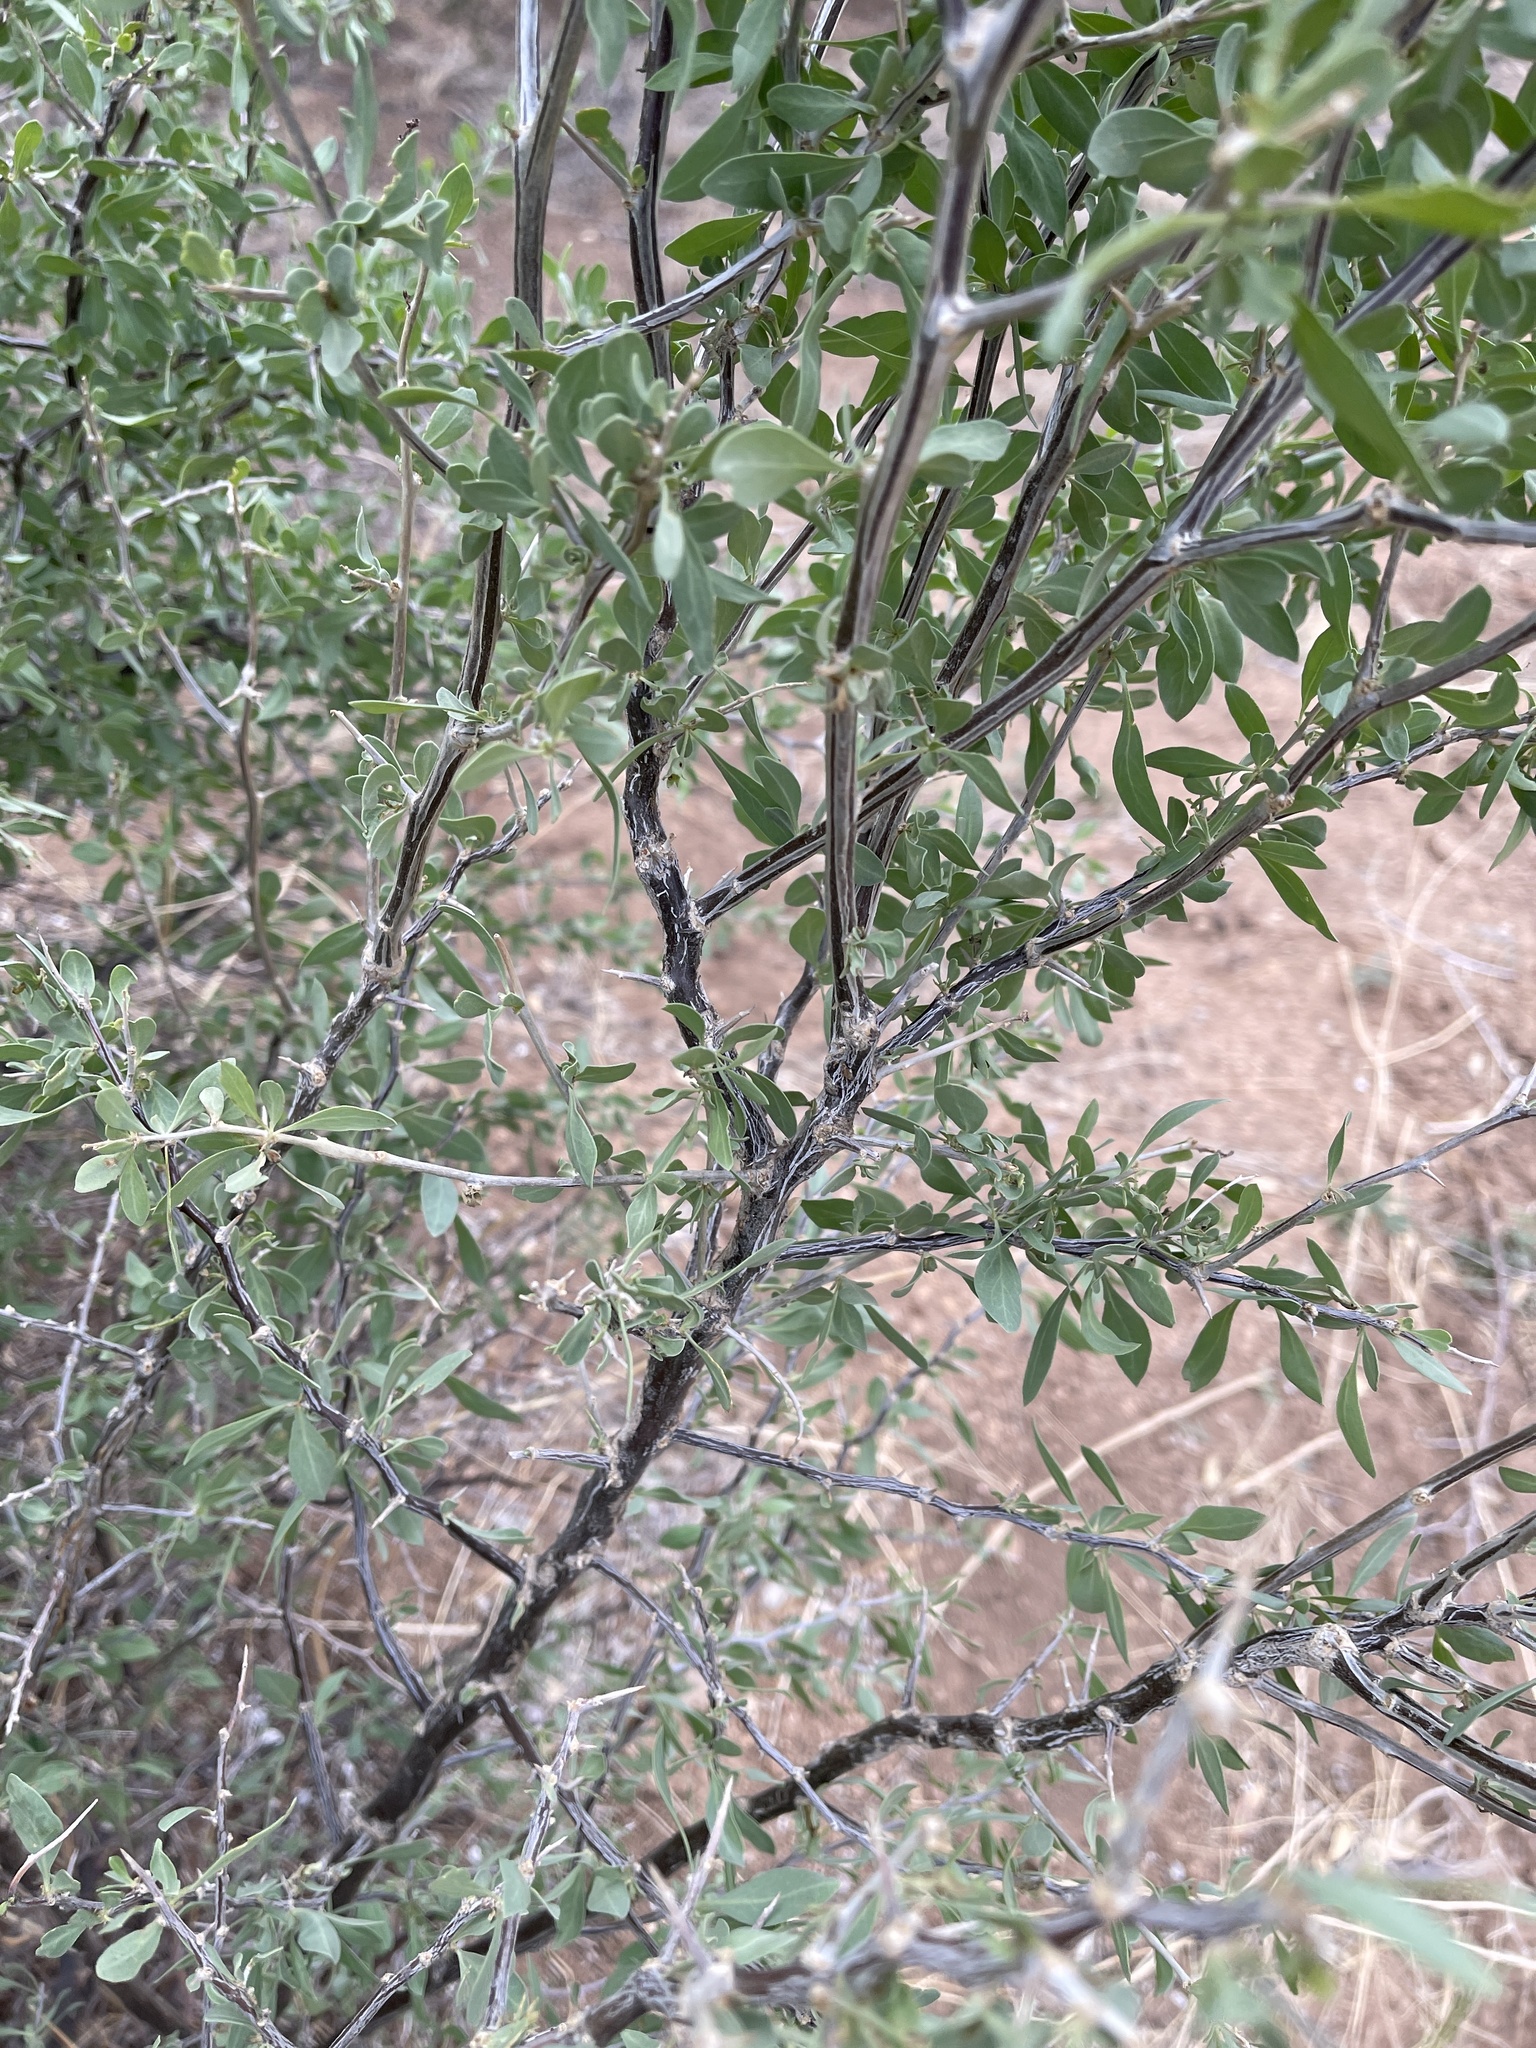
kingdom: Plantae
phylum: Tracheophyta
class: Magnoliopsida
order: Solanales
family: Solanaceae
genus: Lycium
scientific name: Lycium pallidum
